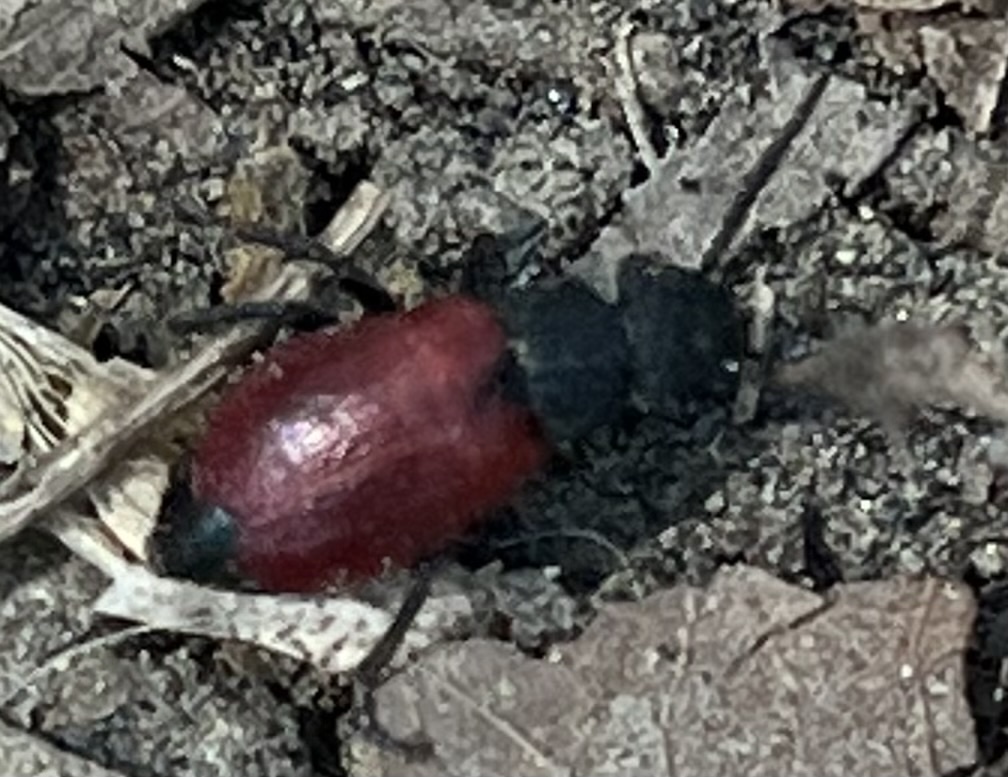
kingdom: Animalia
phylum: Arthropoda
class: Insecta
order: Coleoptera
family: Meloidae
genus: Tricrania
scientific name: Tricrania sanguinipennis
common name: Blood-winged blister beetle
